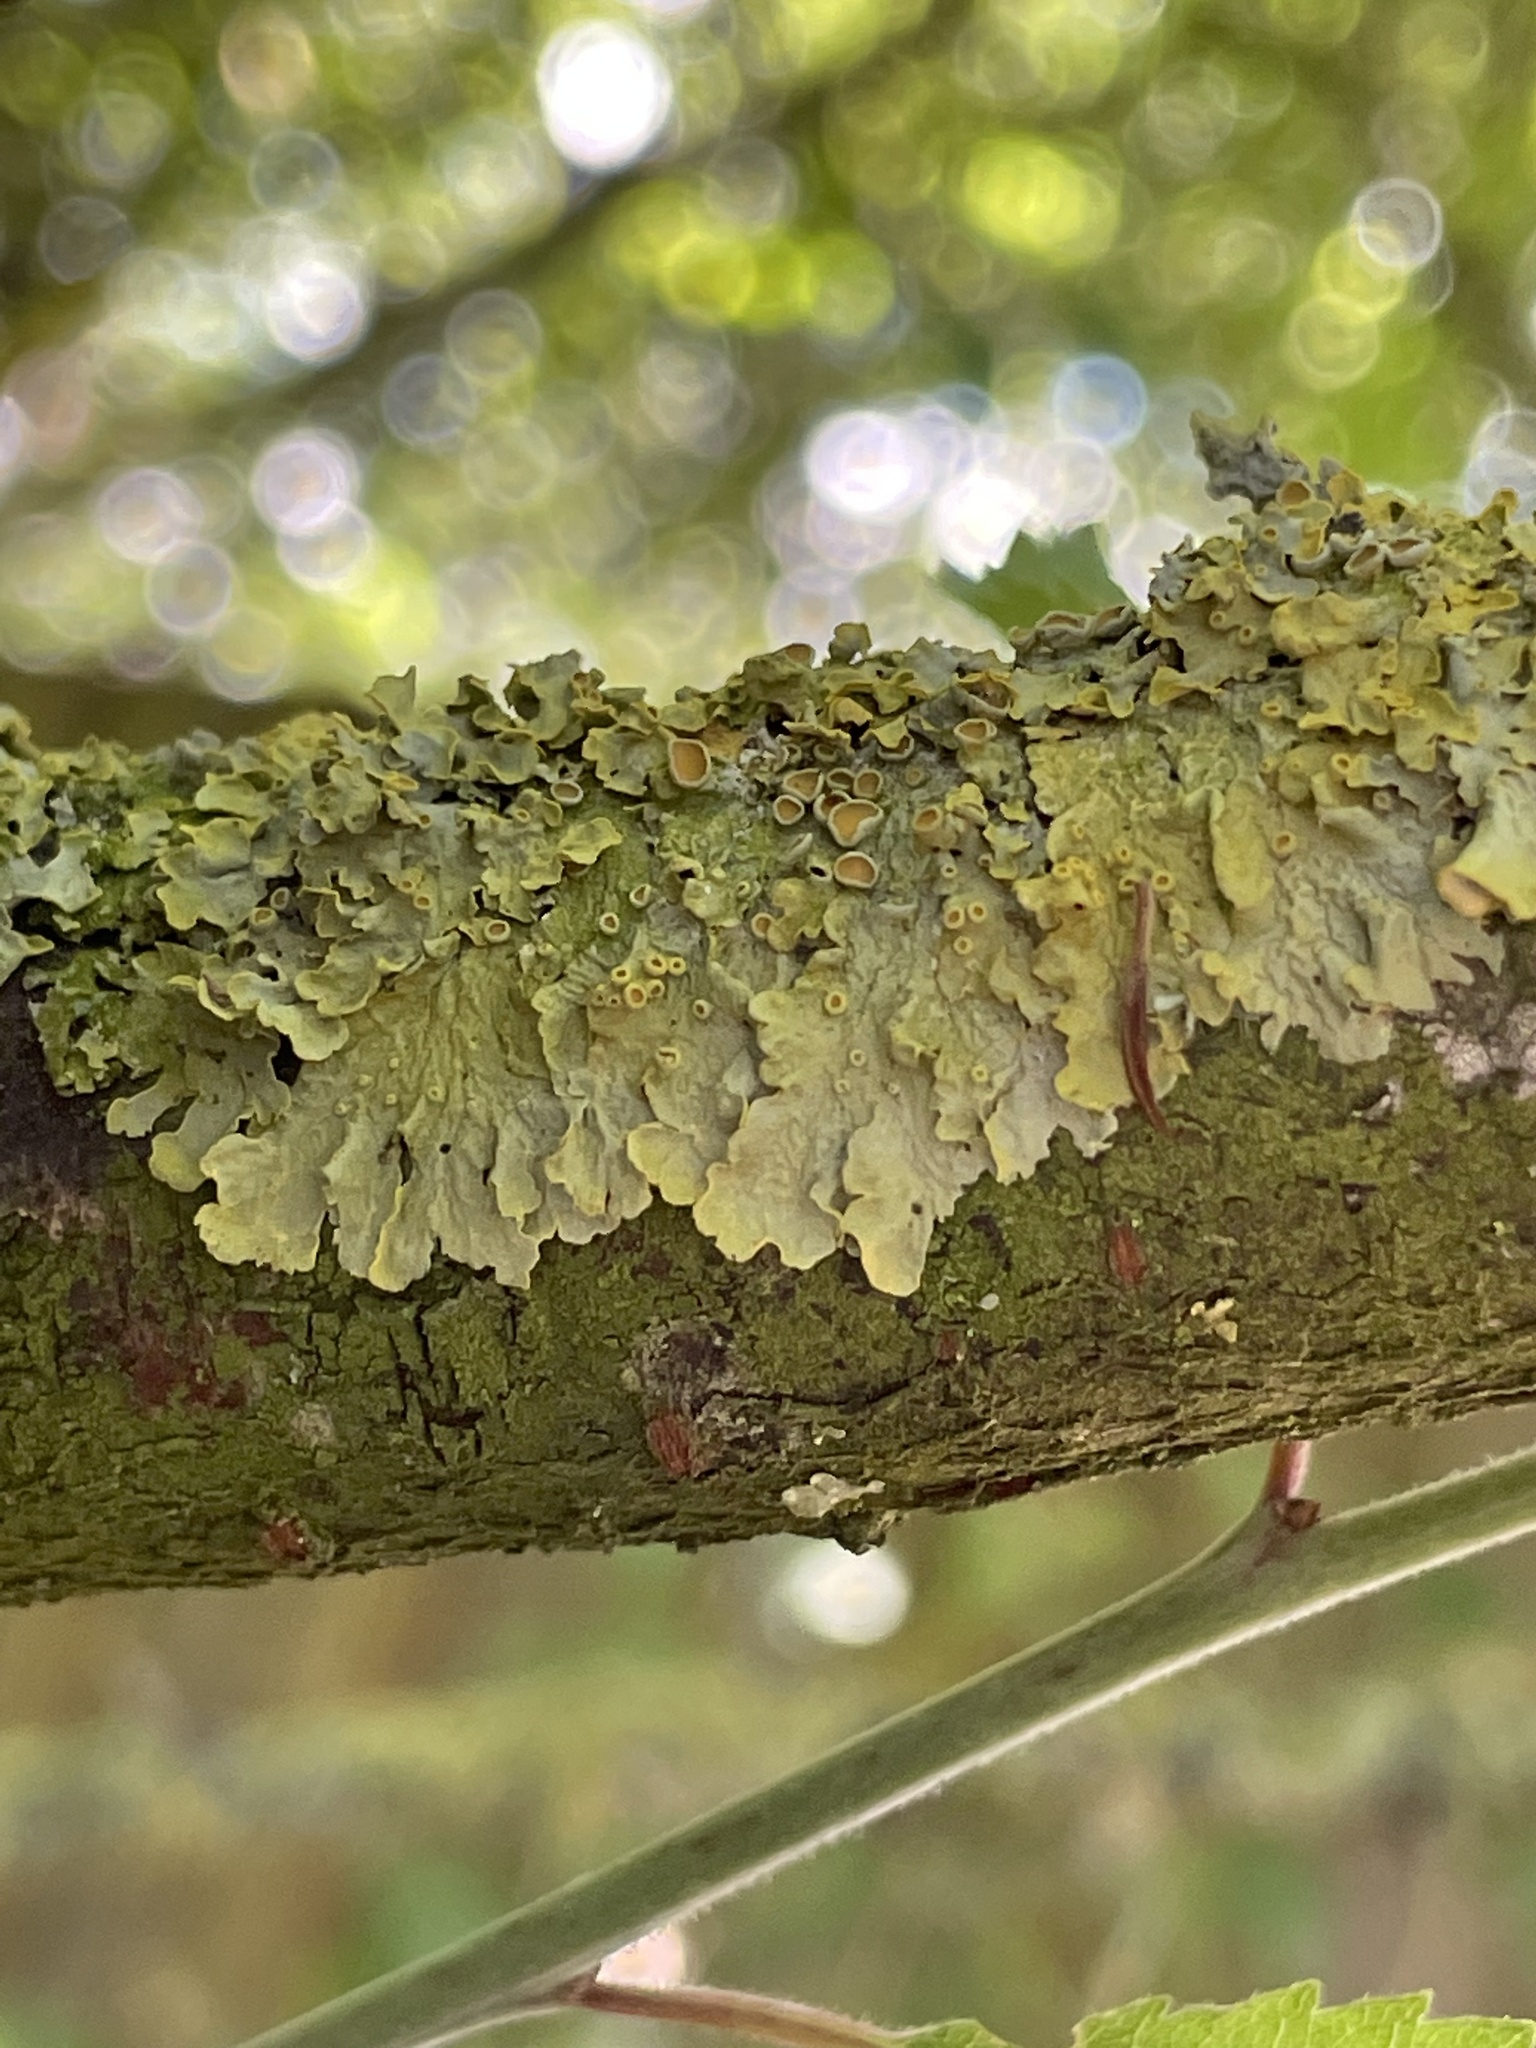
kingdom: Fungi
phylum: Ascomycota
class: Lecanoromycetes
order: Teloschistales
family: Teloschistaceae
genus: Xanthoria
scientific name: Xanthoria parietina
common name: Common orange lichen
